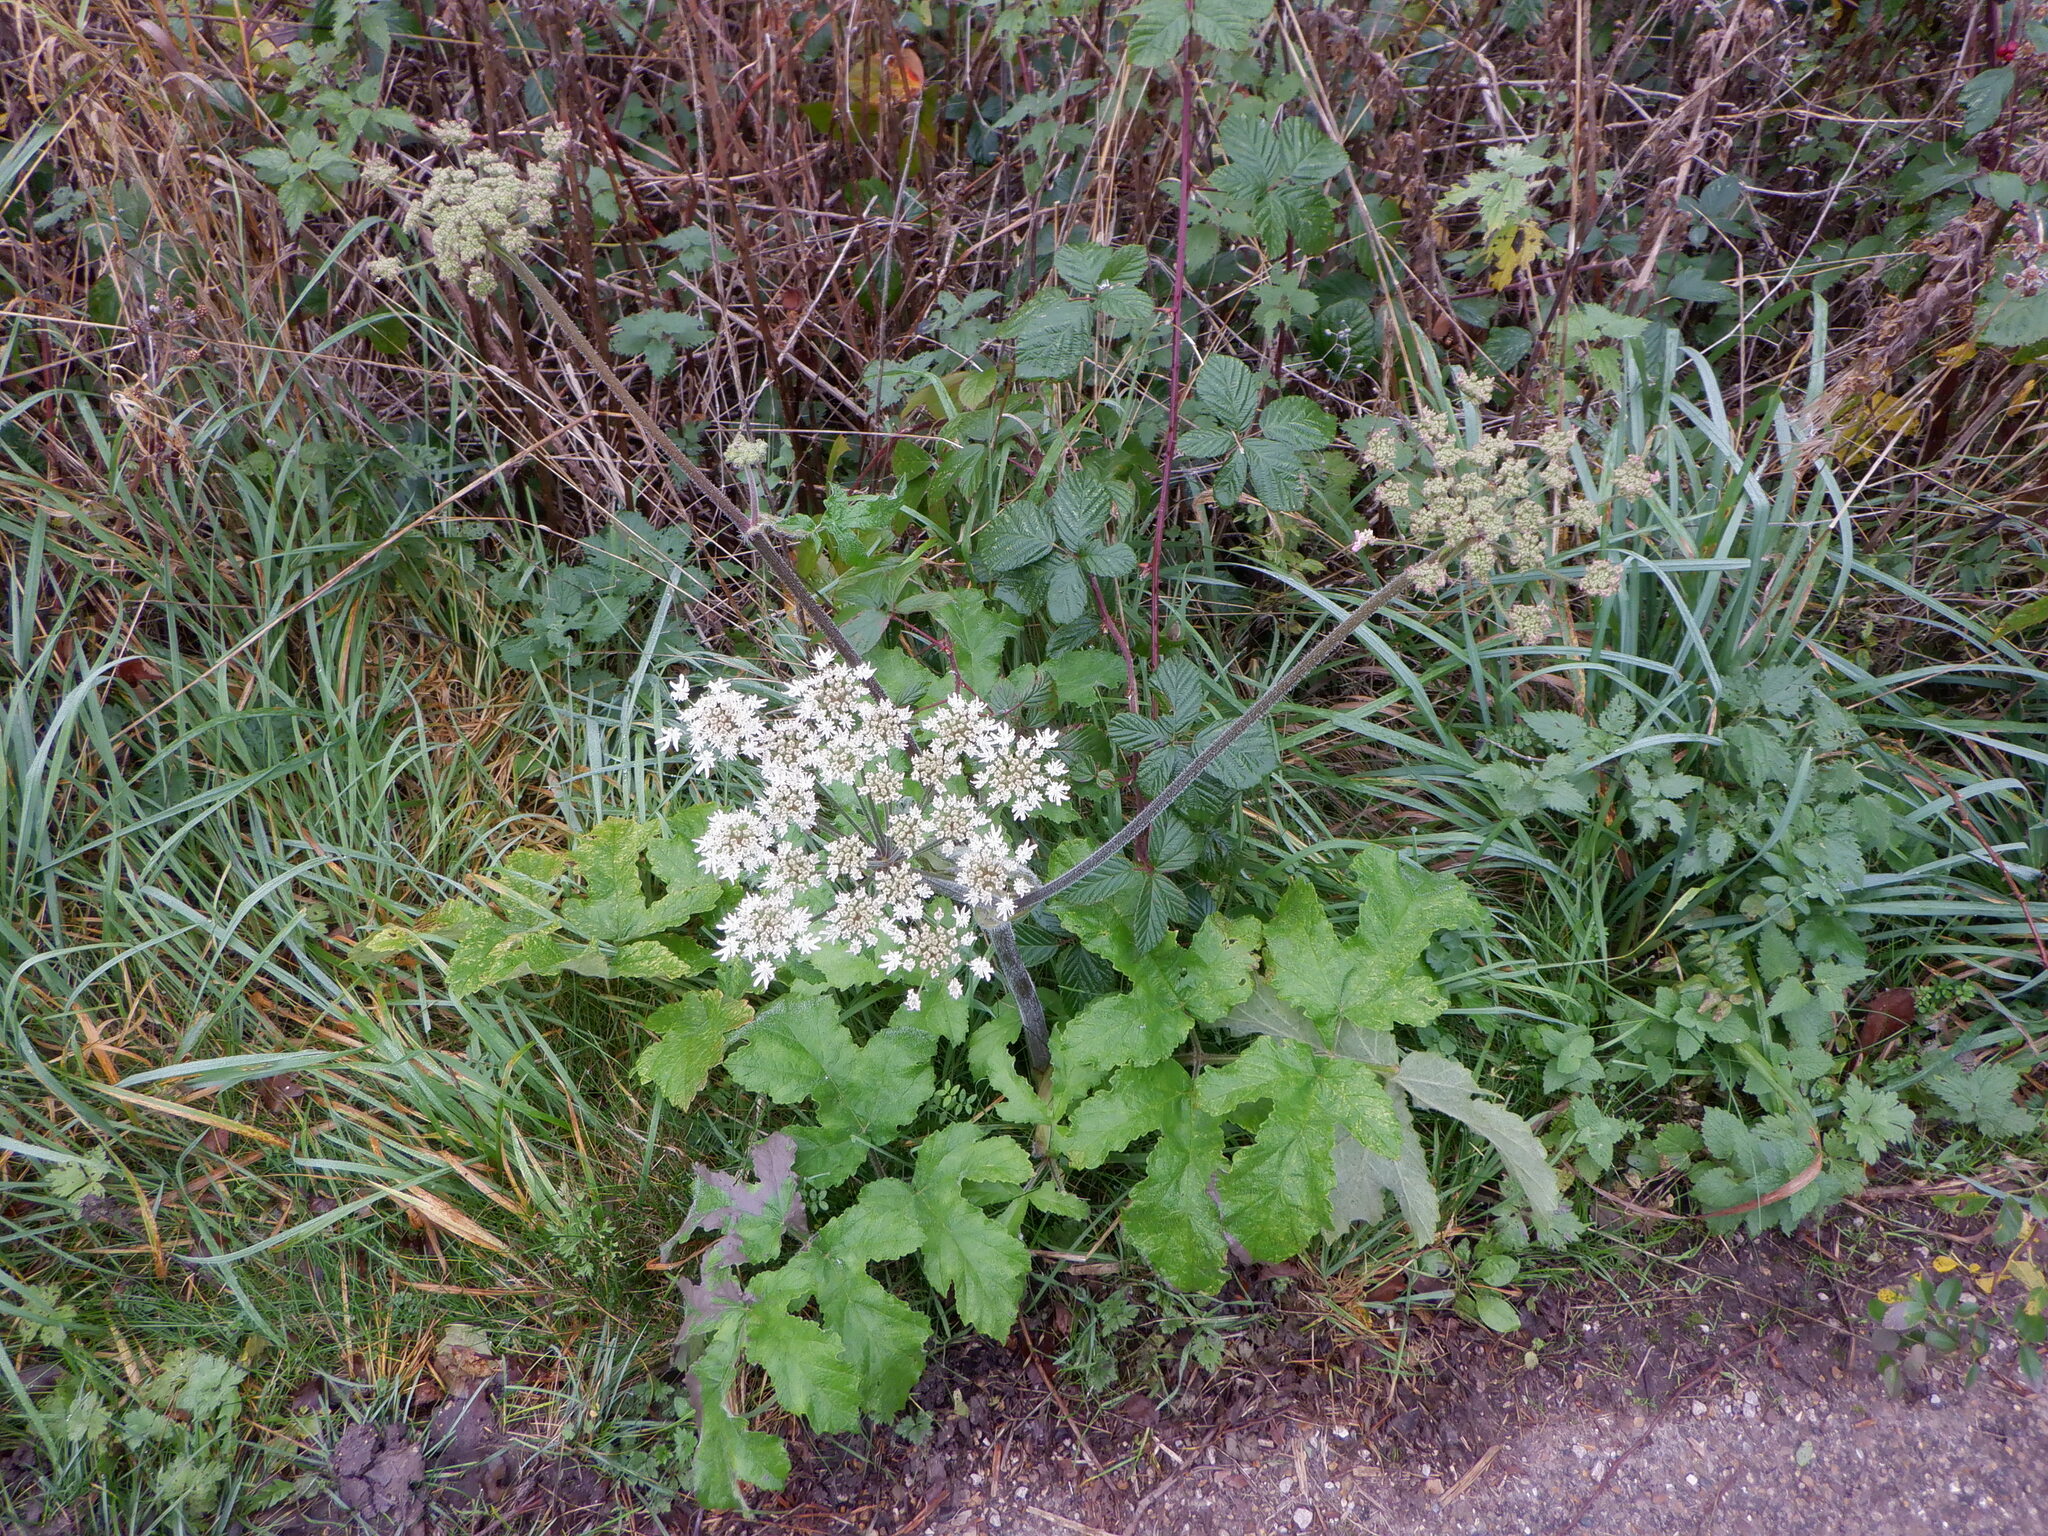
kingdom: Plantae
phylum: Tracheophyta
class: Magnoliopsida
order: Apiales
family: Apiaceae
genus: Heracleum
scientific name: Heracleum sphondylium
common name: Hogweed
